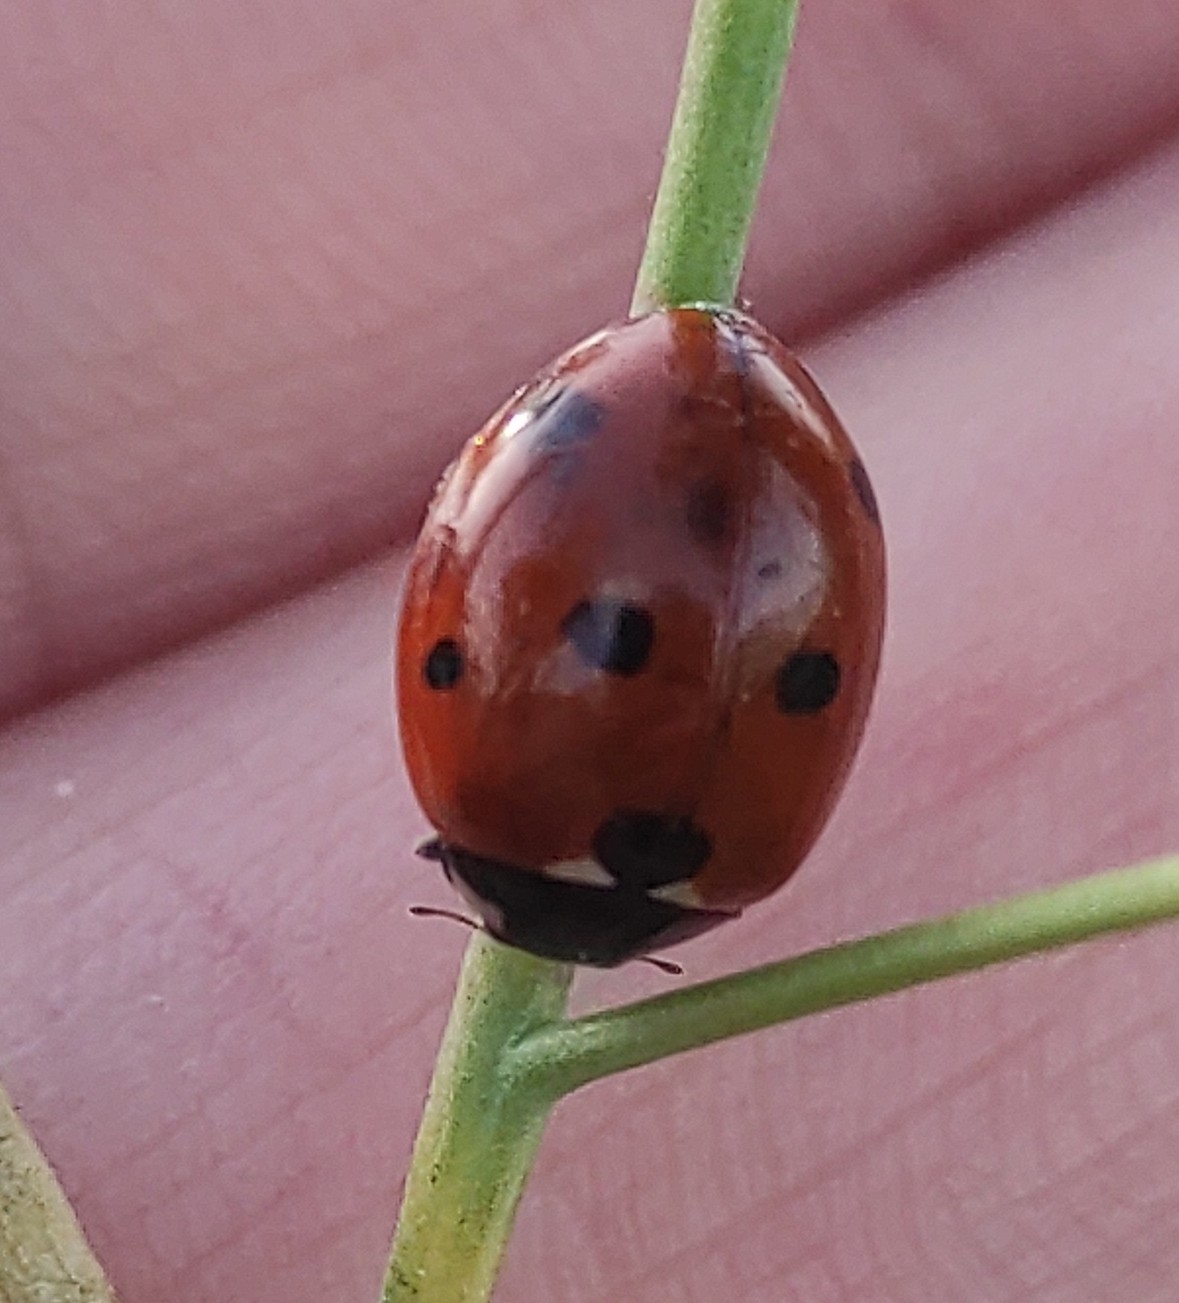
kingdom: Animalia
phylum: Arthropoda
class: Insecta
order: Coleoptera
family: Coccinellidae
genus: Coccinella
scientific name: Coccinella septempunctata
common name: Sevenspotted lady beetle
